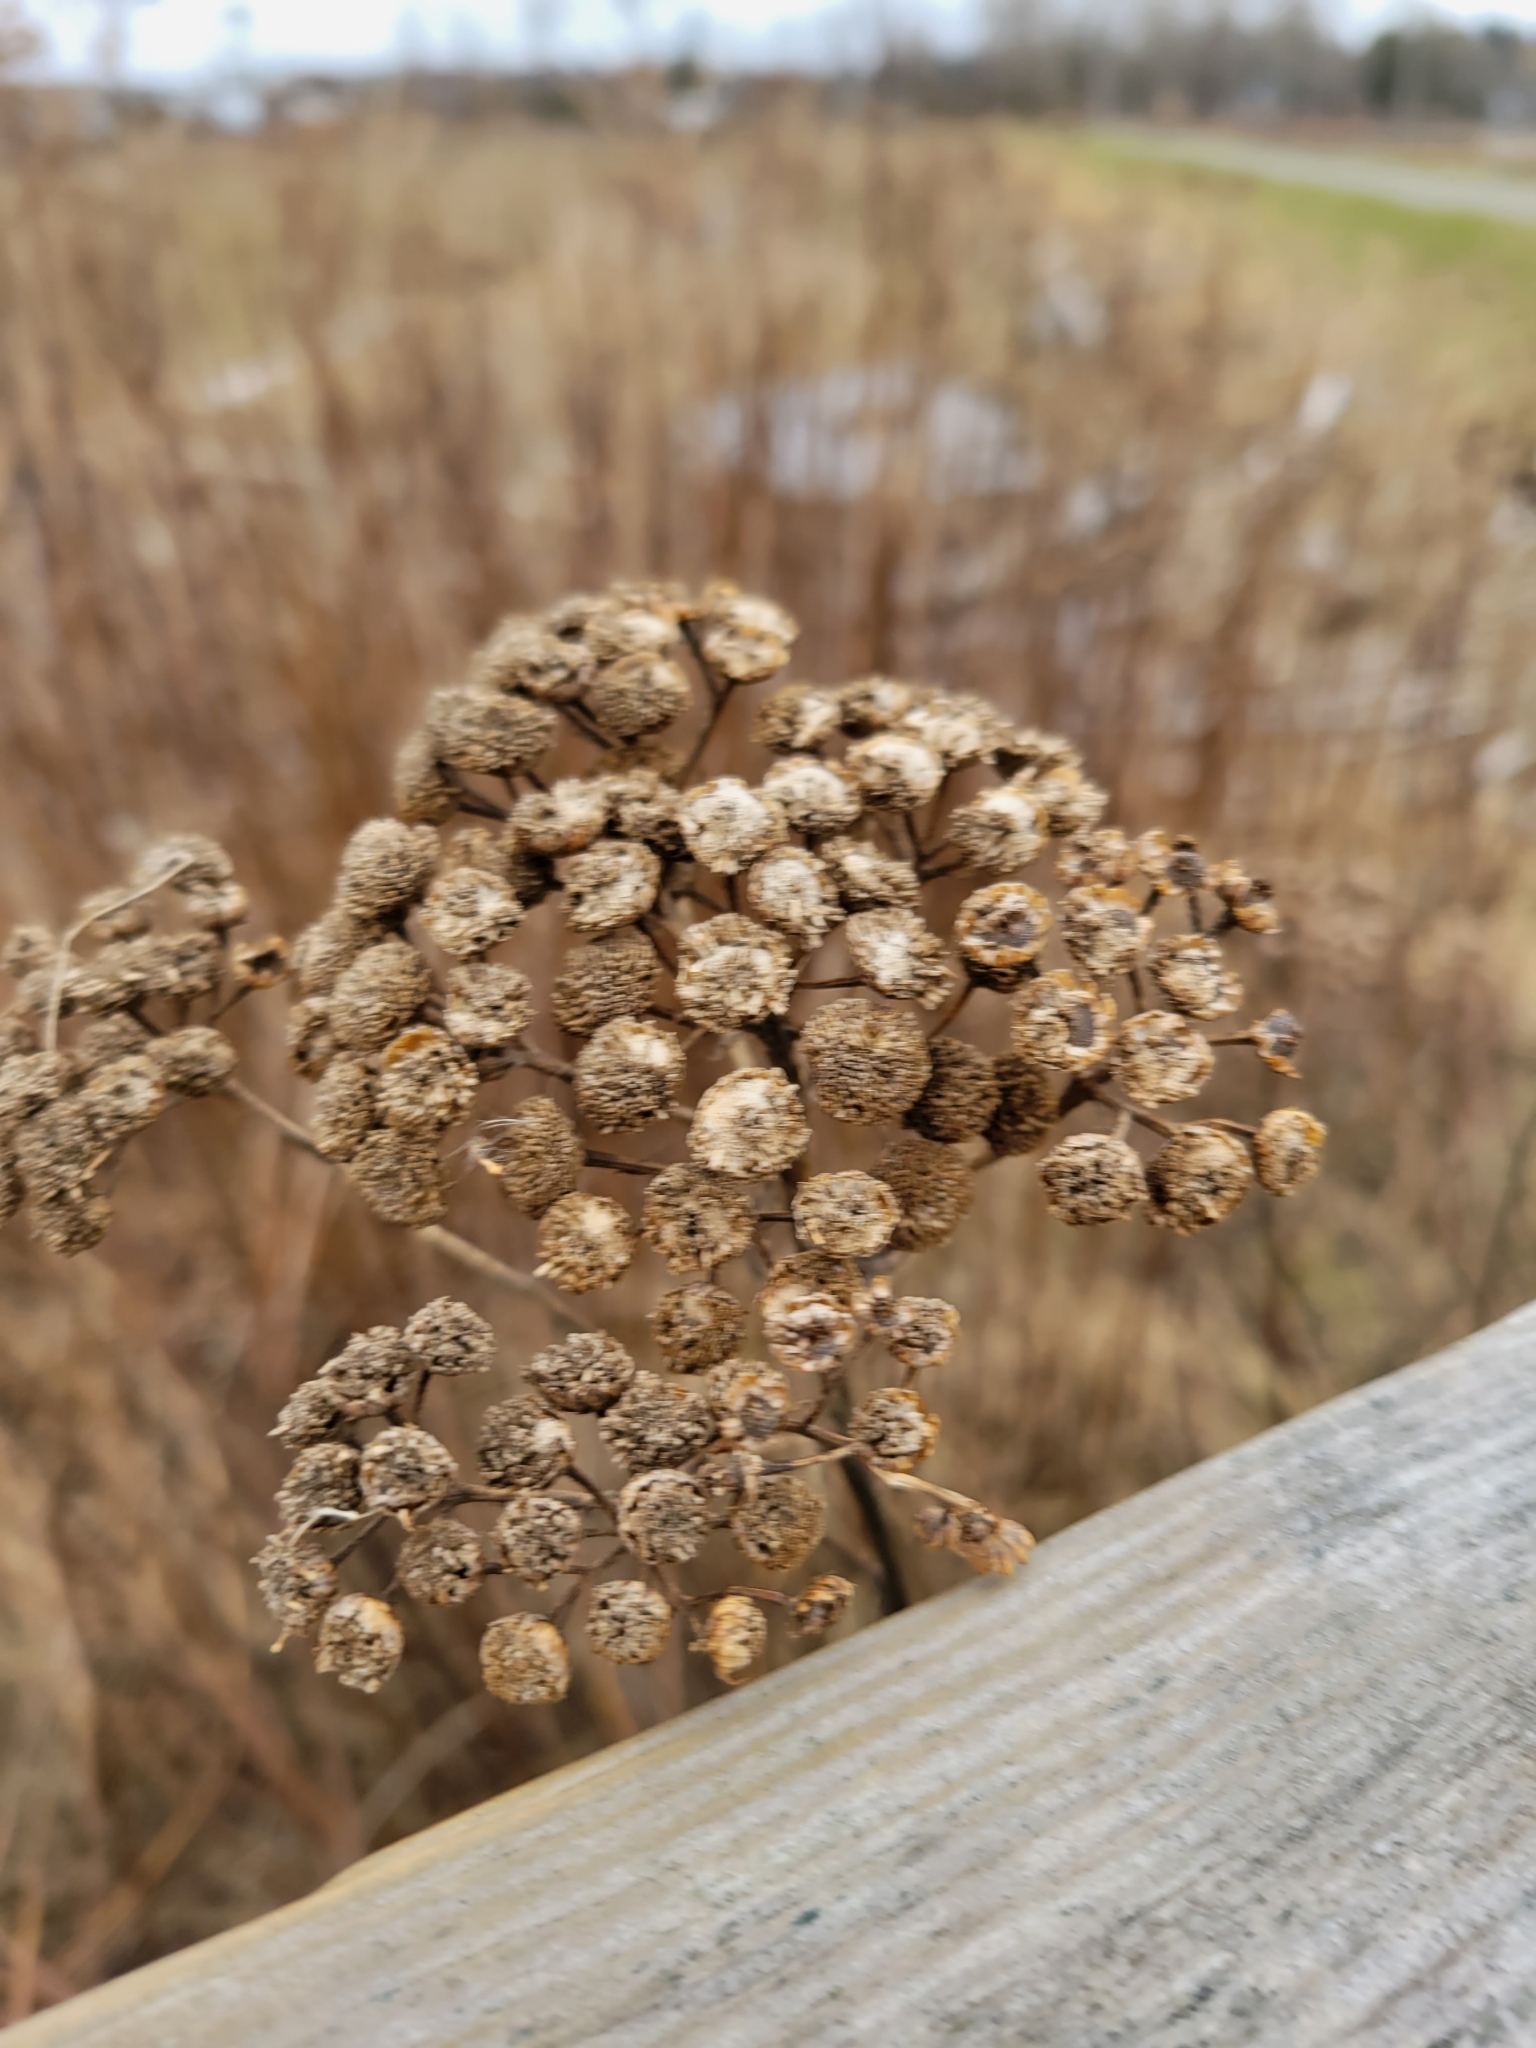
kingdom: Plantae
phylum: Tracheophyta
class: Magnoliopsida
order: Asterales
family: Asteraceae
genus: Tanacetum
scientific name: Tanacetum vulgare
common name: Common tansy
